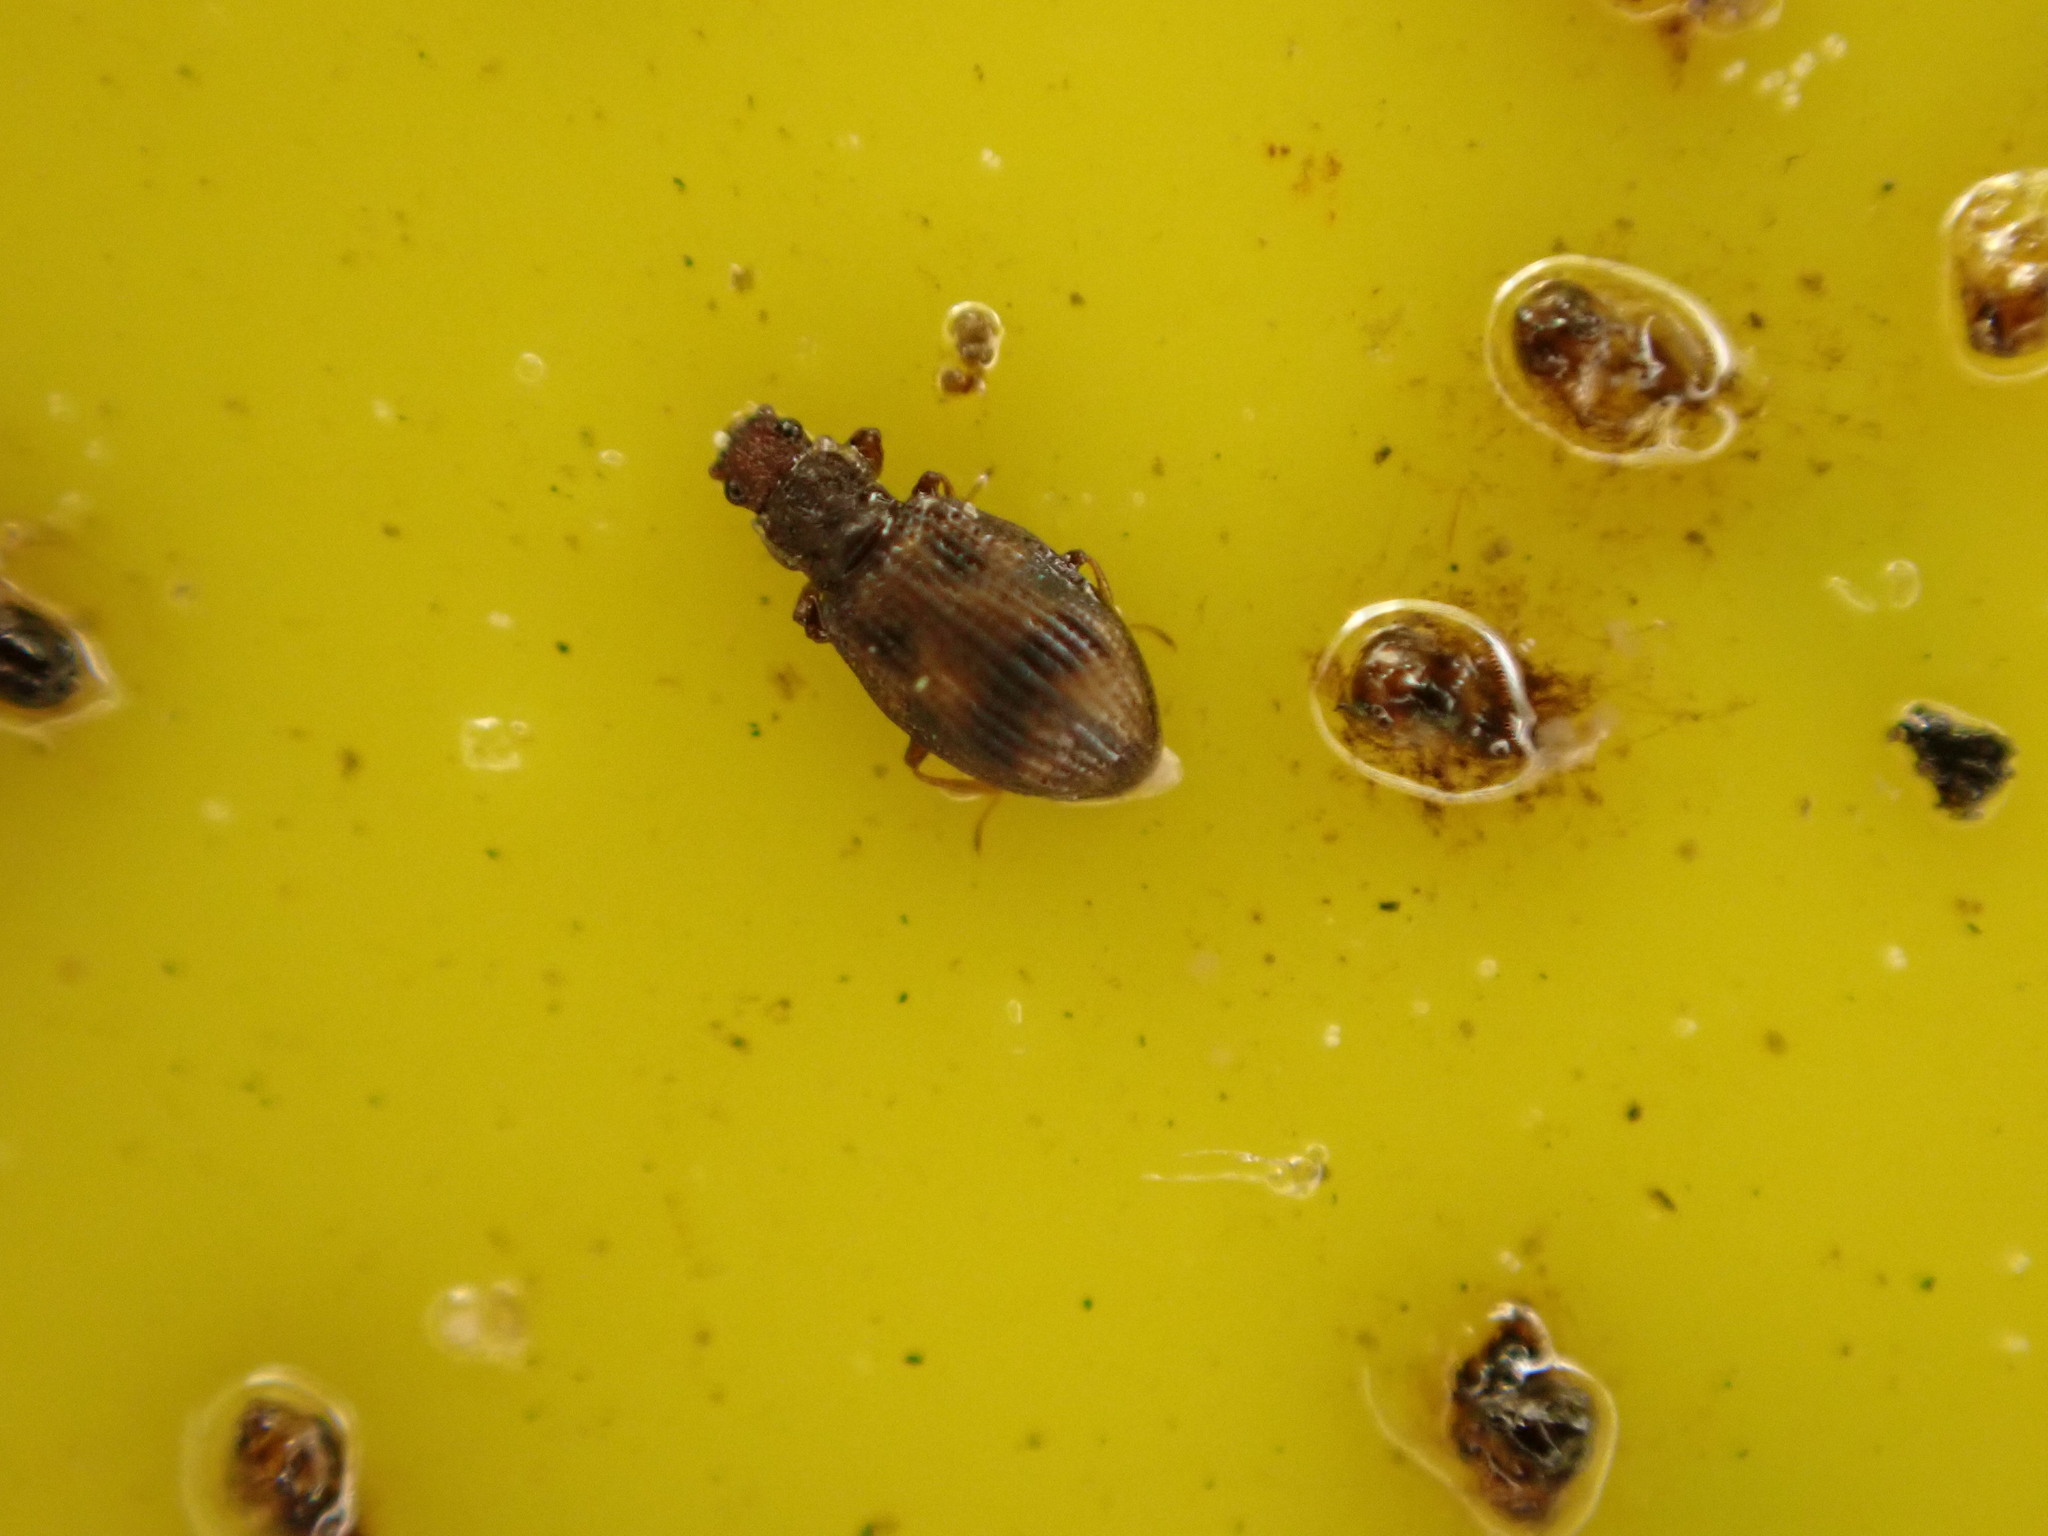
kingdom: Animalia
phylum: Arthropoda
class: Insecta
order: Coleoptera
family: Latridiidae
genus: Cartodere
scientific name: Cartodere bifasciata
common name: Plaster beetle
